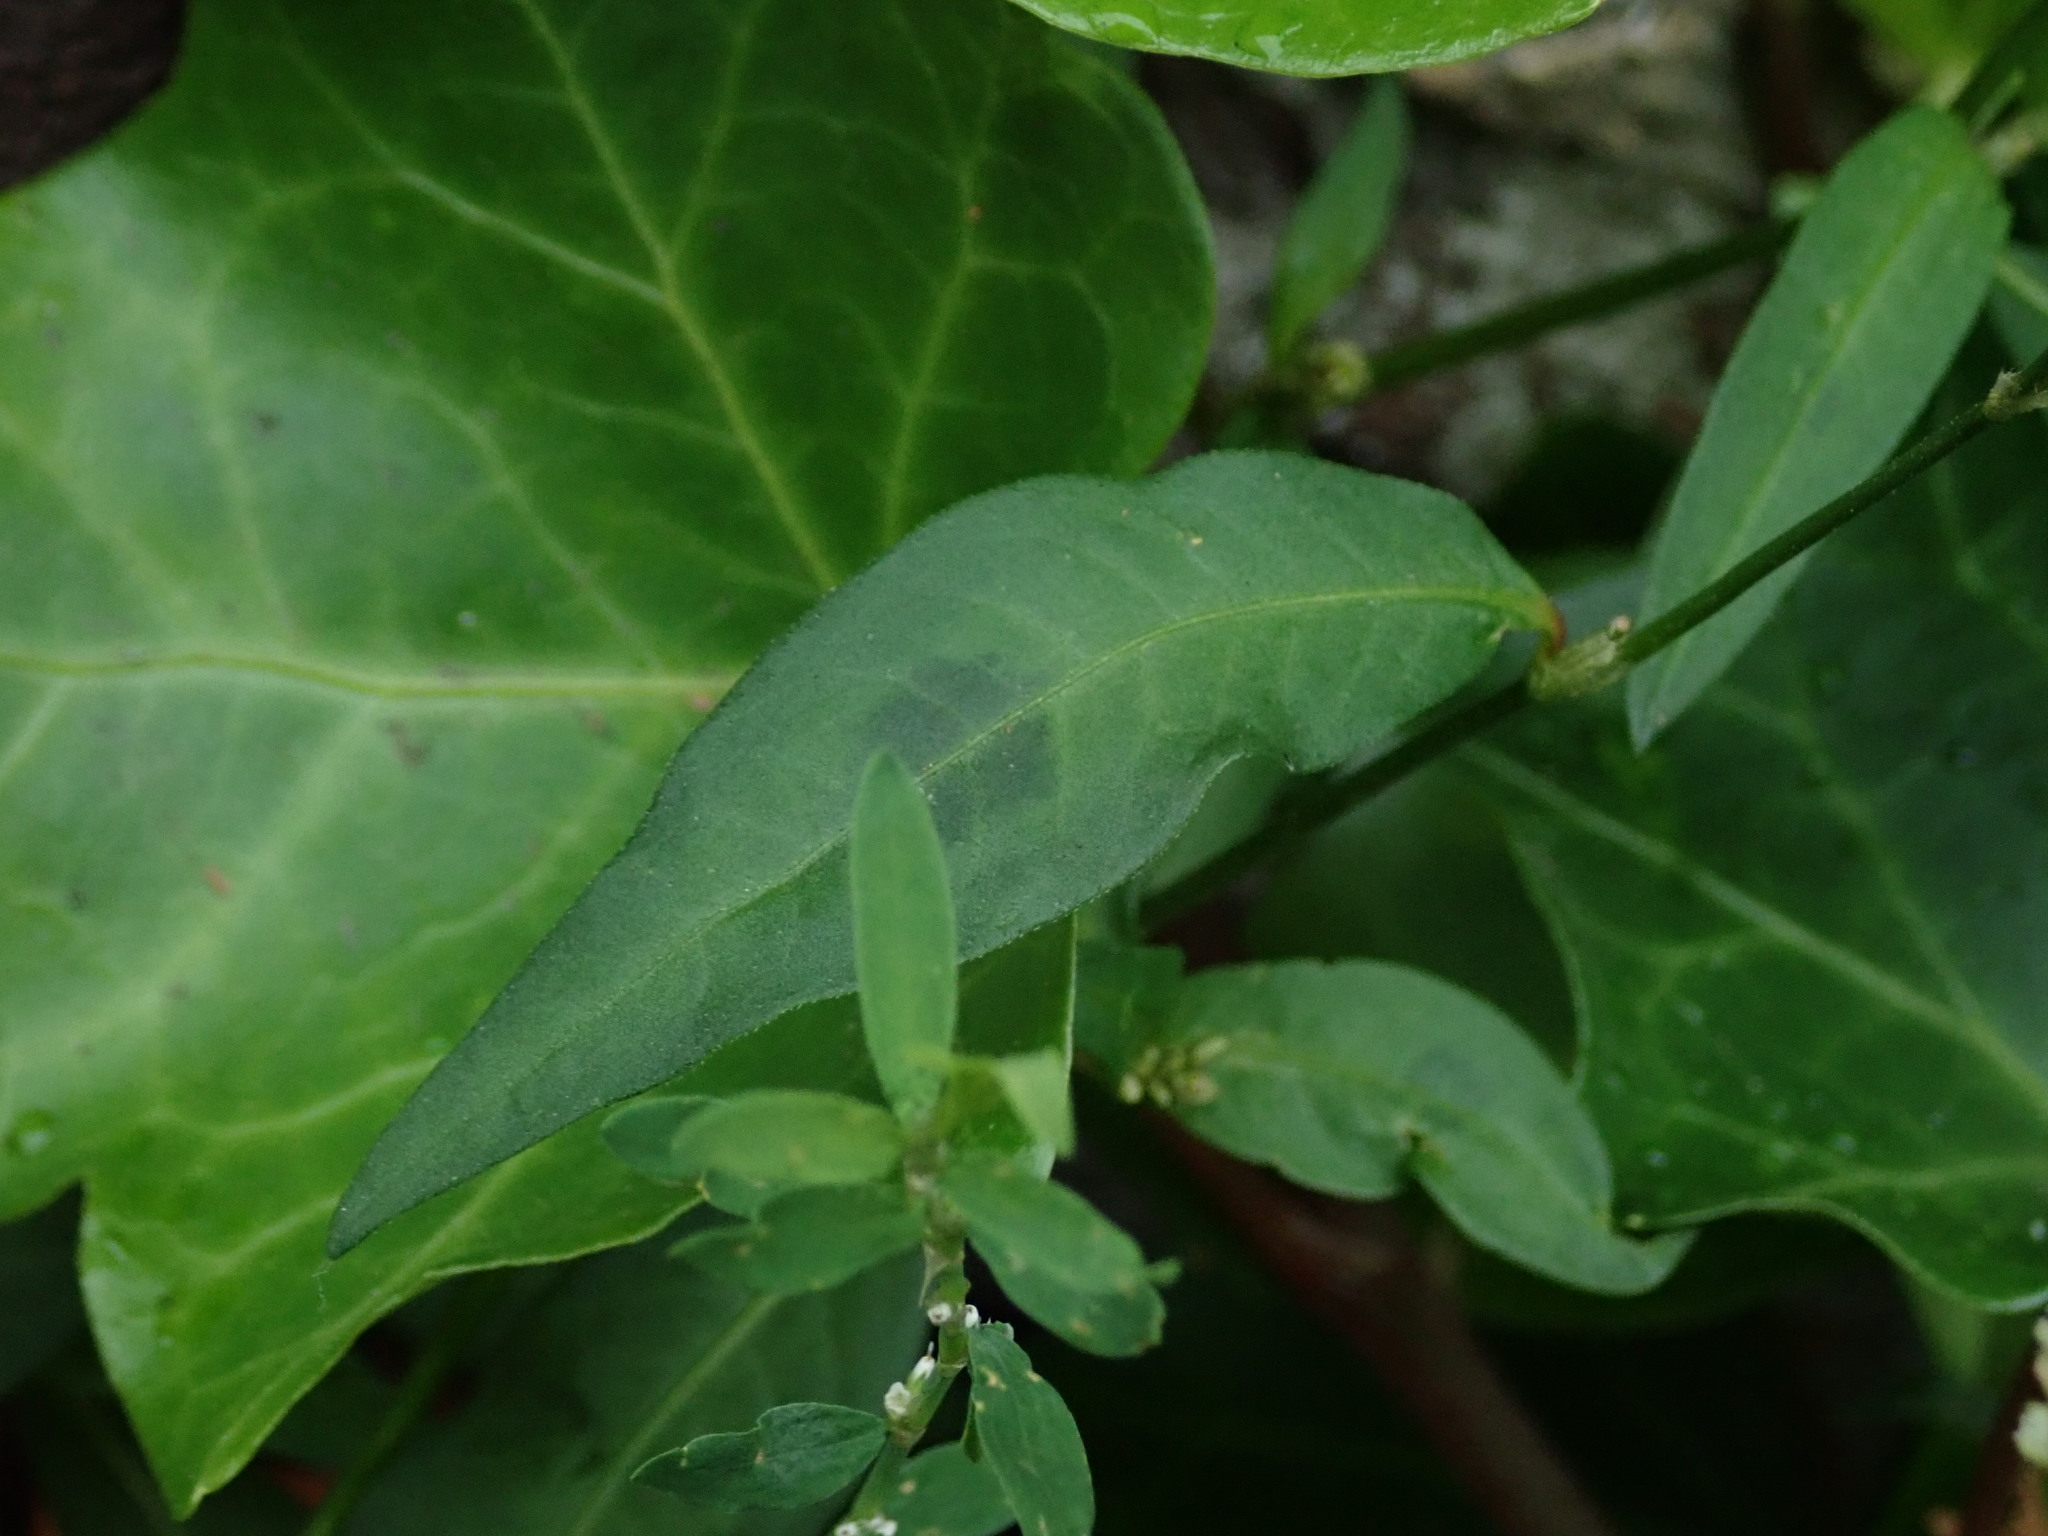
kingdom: Plantae
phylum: Tracheophyta
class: Magnoliopsida
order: Caryophyllales
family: Polygonaceae
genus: Persicaria
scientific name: Persicaria maculosa
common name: Redshank
